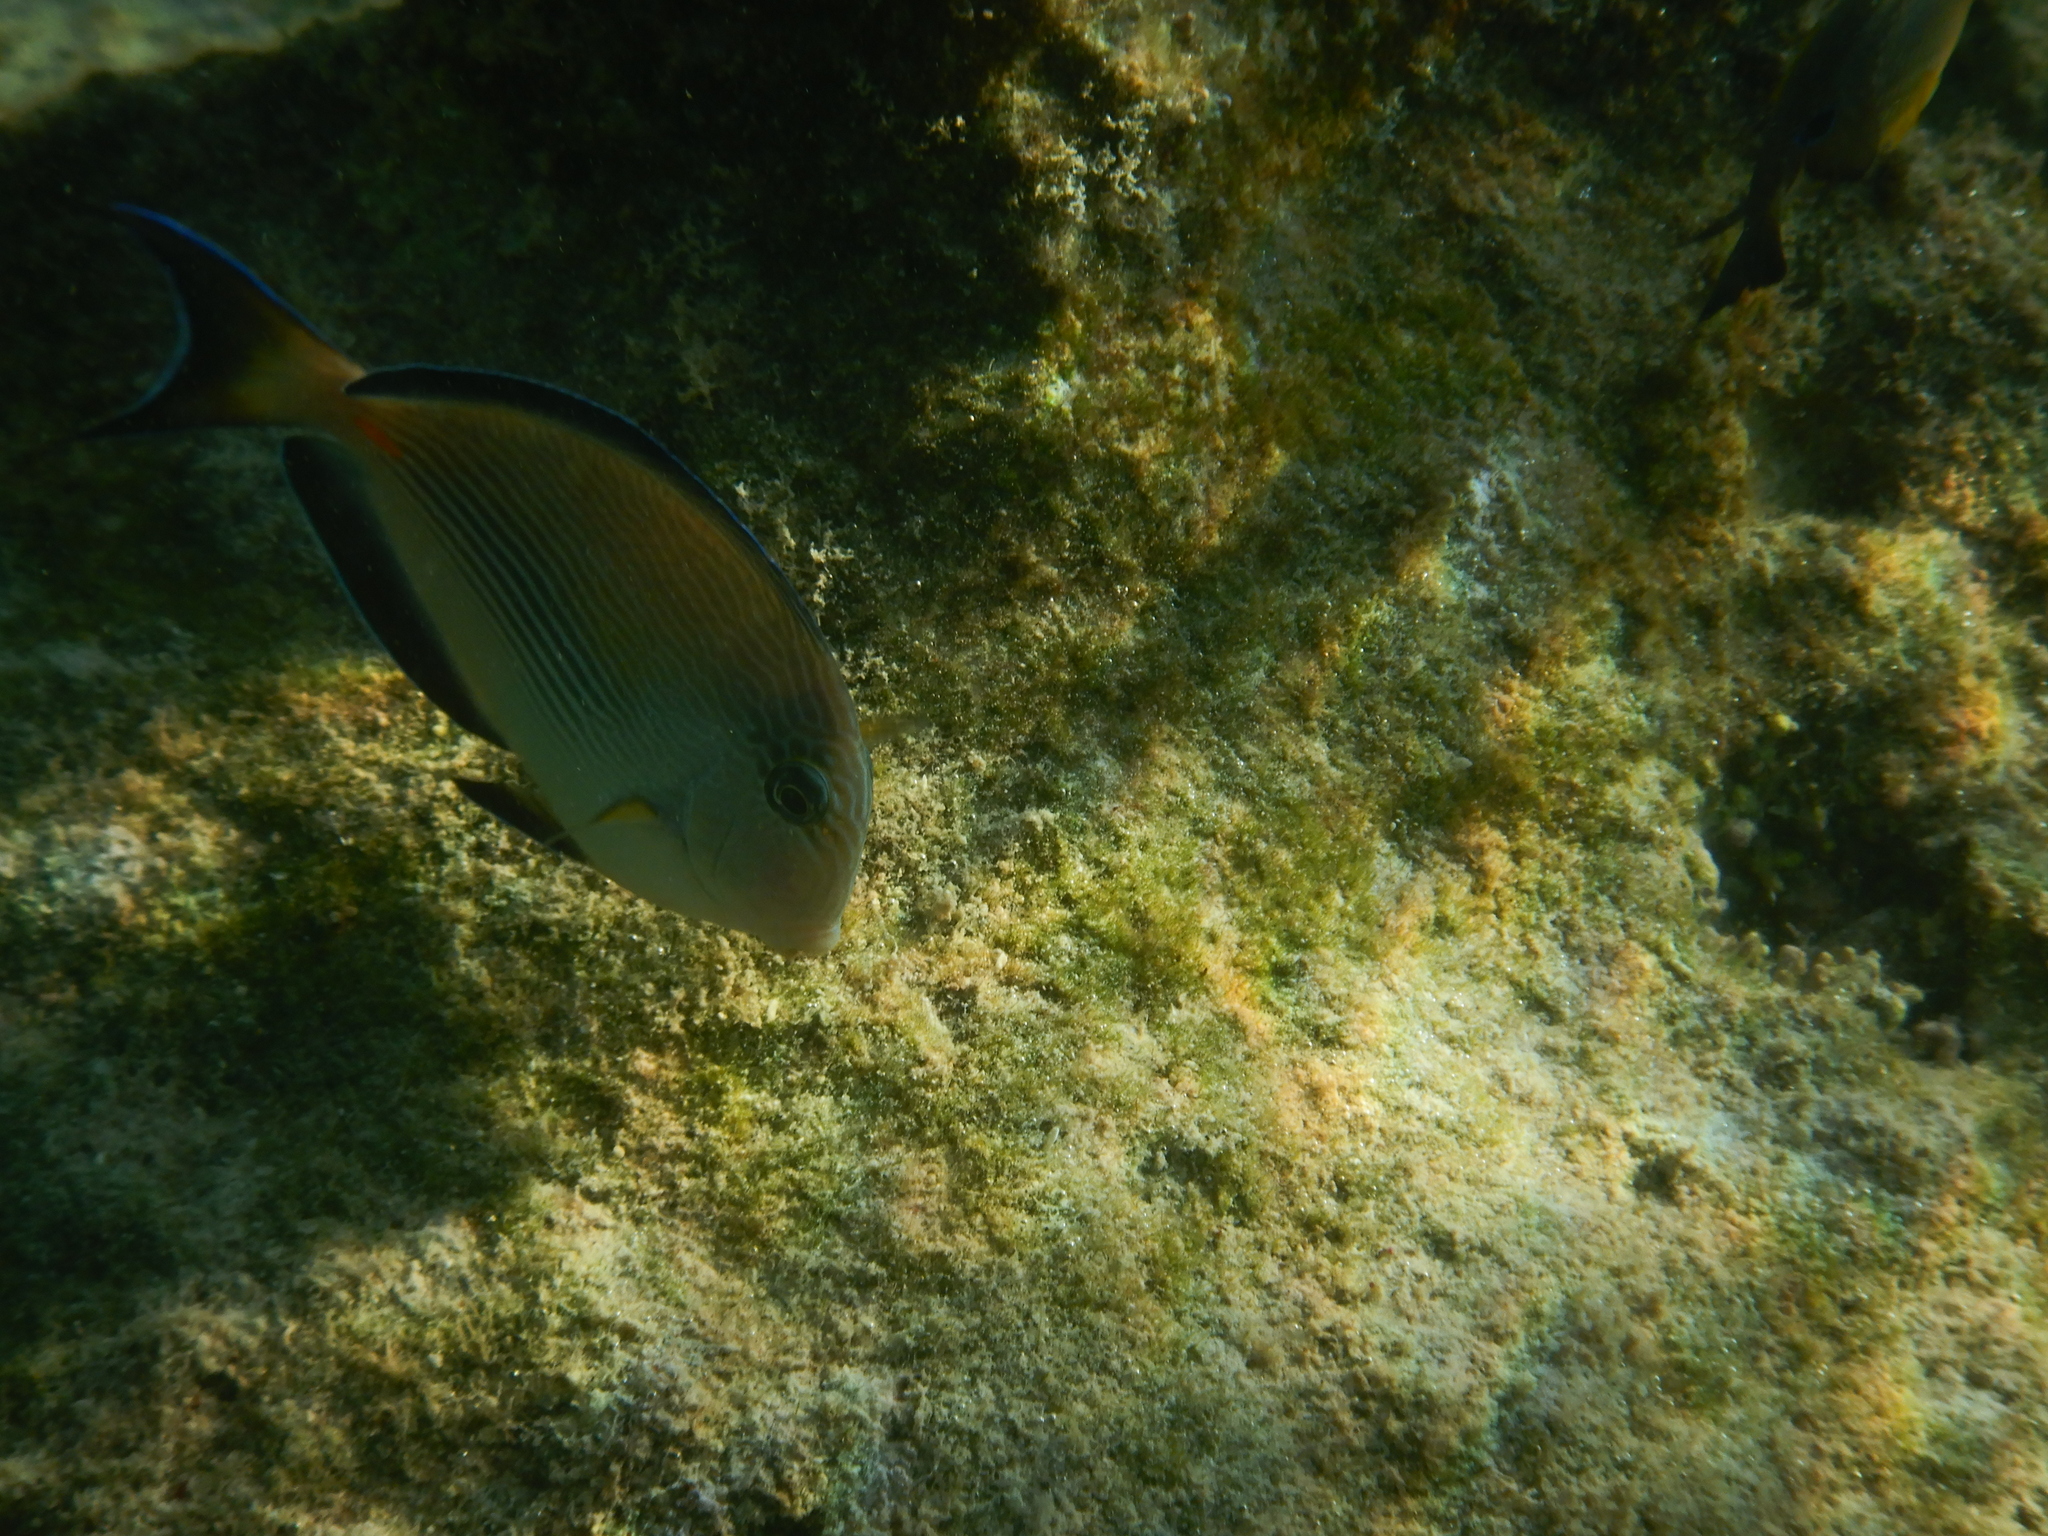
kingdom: Animalia
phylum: Chordata
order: Perciformes
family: Acanthuridae
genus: Acanthurus
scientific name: Acanthurus sohal
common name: Red sea surgeonfish
